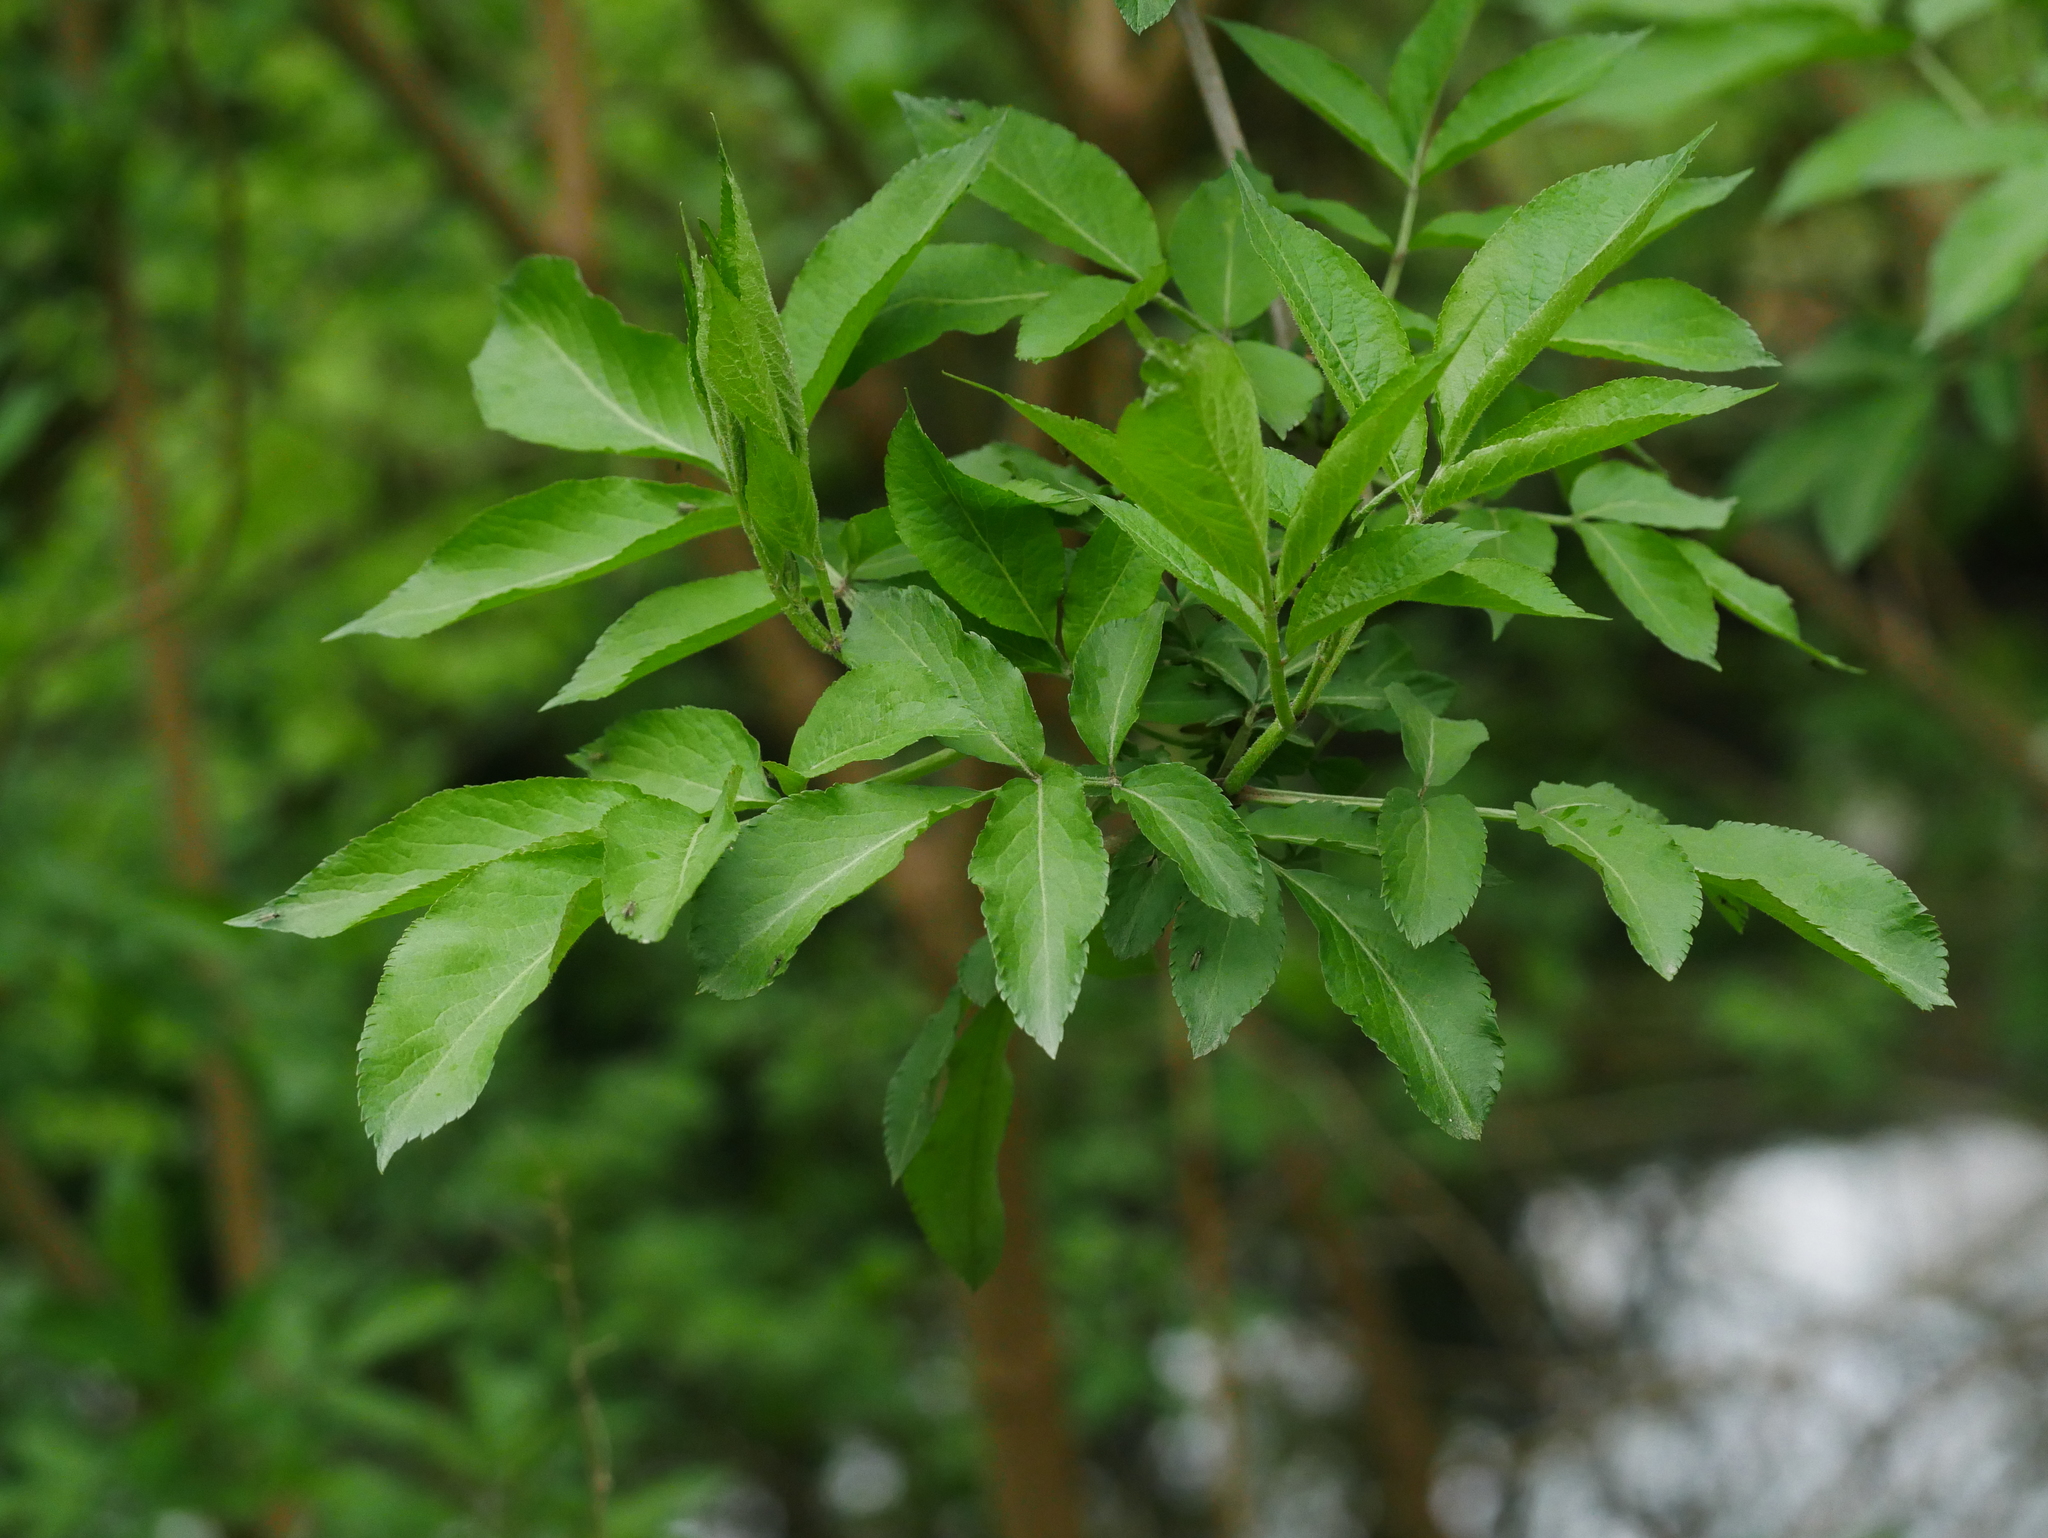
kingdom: Plantae
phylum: Tracheophyta
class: Magnoliopsida
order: Dipsacales
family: Viburnaceae
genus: Sambucus
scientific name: Sambucus nigra
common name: Elder
